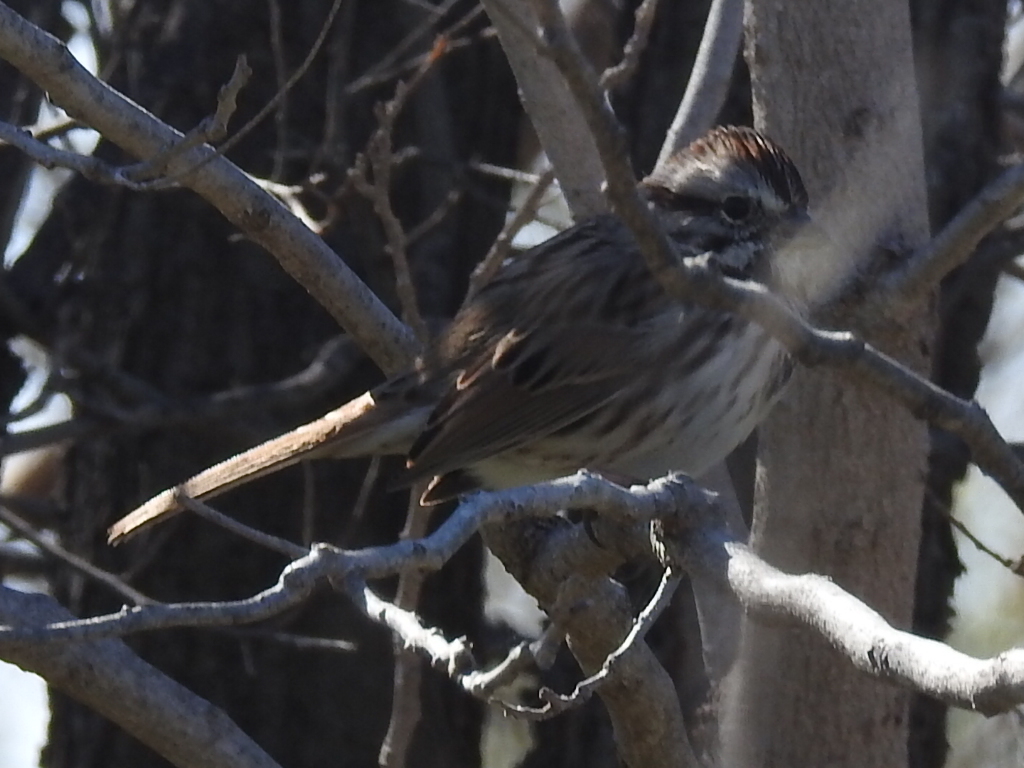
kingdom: Animalia
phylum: Chordata
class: Aves
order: Passeriformes
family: Passerellidae
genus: Melospiza
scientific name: Melospiza melodia
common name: Song sparrow
